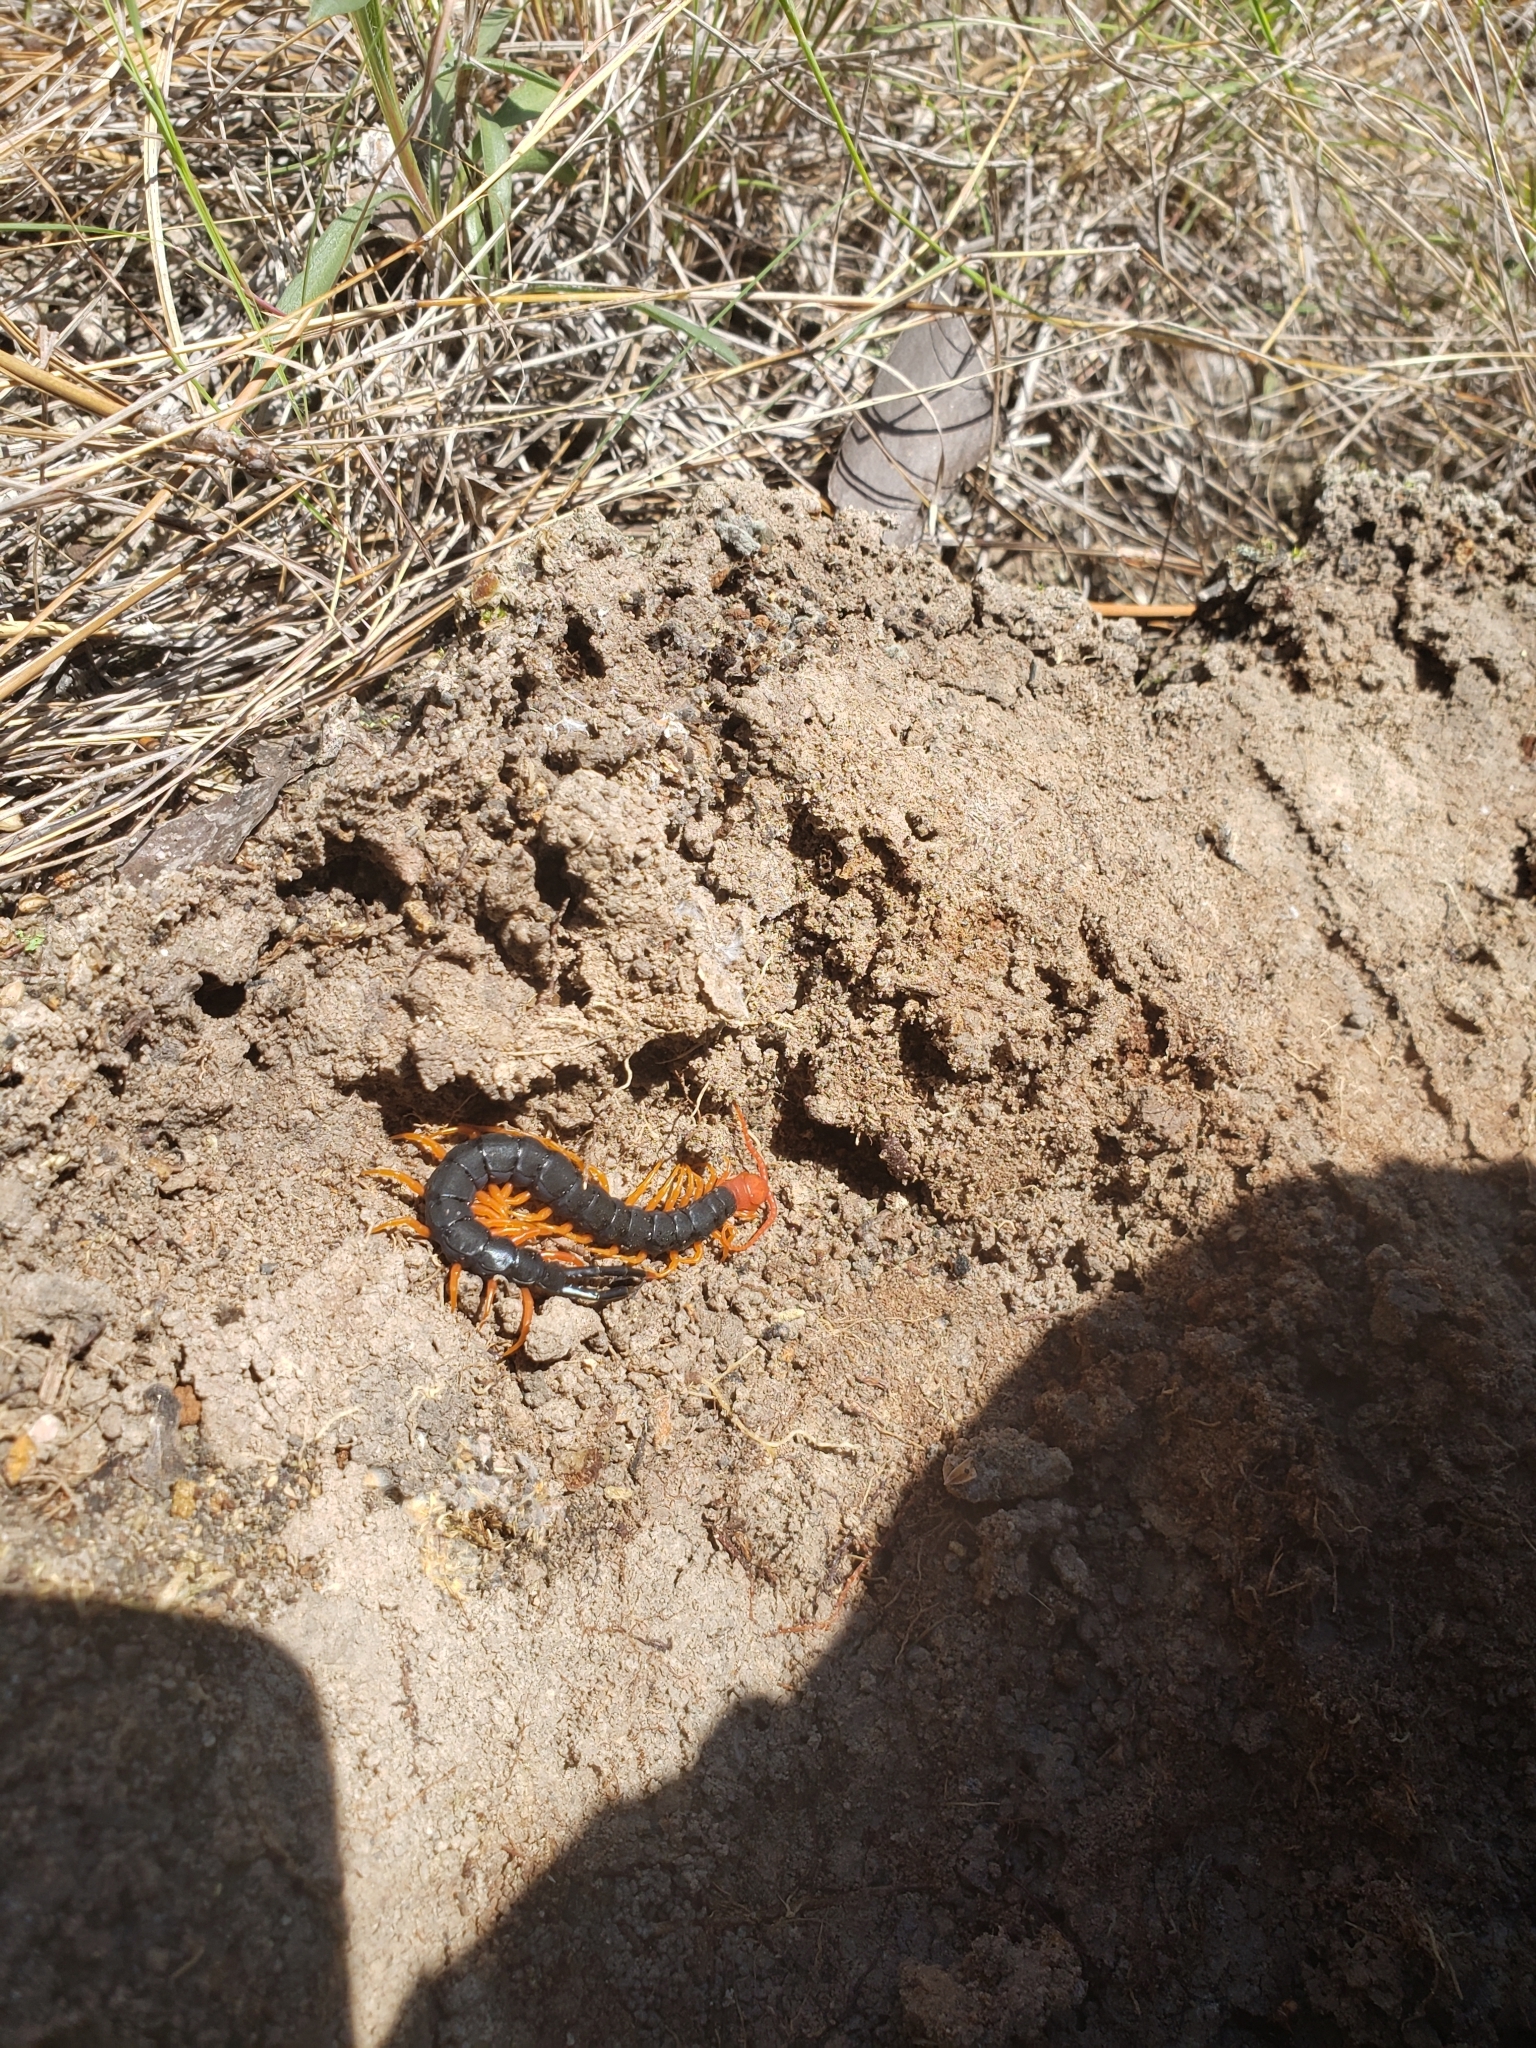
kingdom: Animalia
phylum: Arthropoda
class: Chilopoda
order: Scolopendromorpha
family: Scolopendridae
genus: Scolopendra
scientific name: Scolopendra heros
